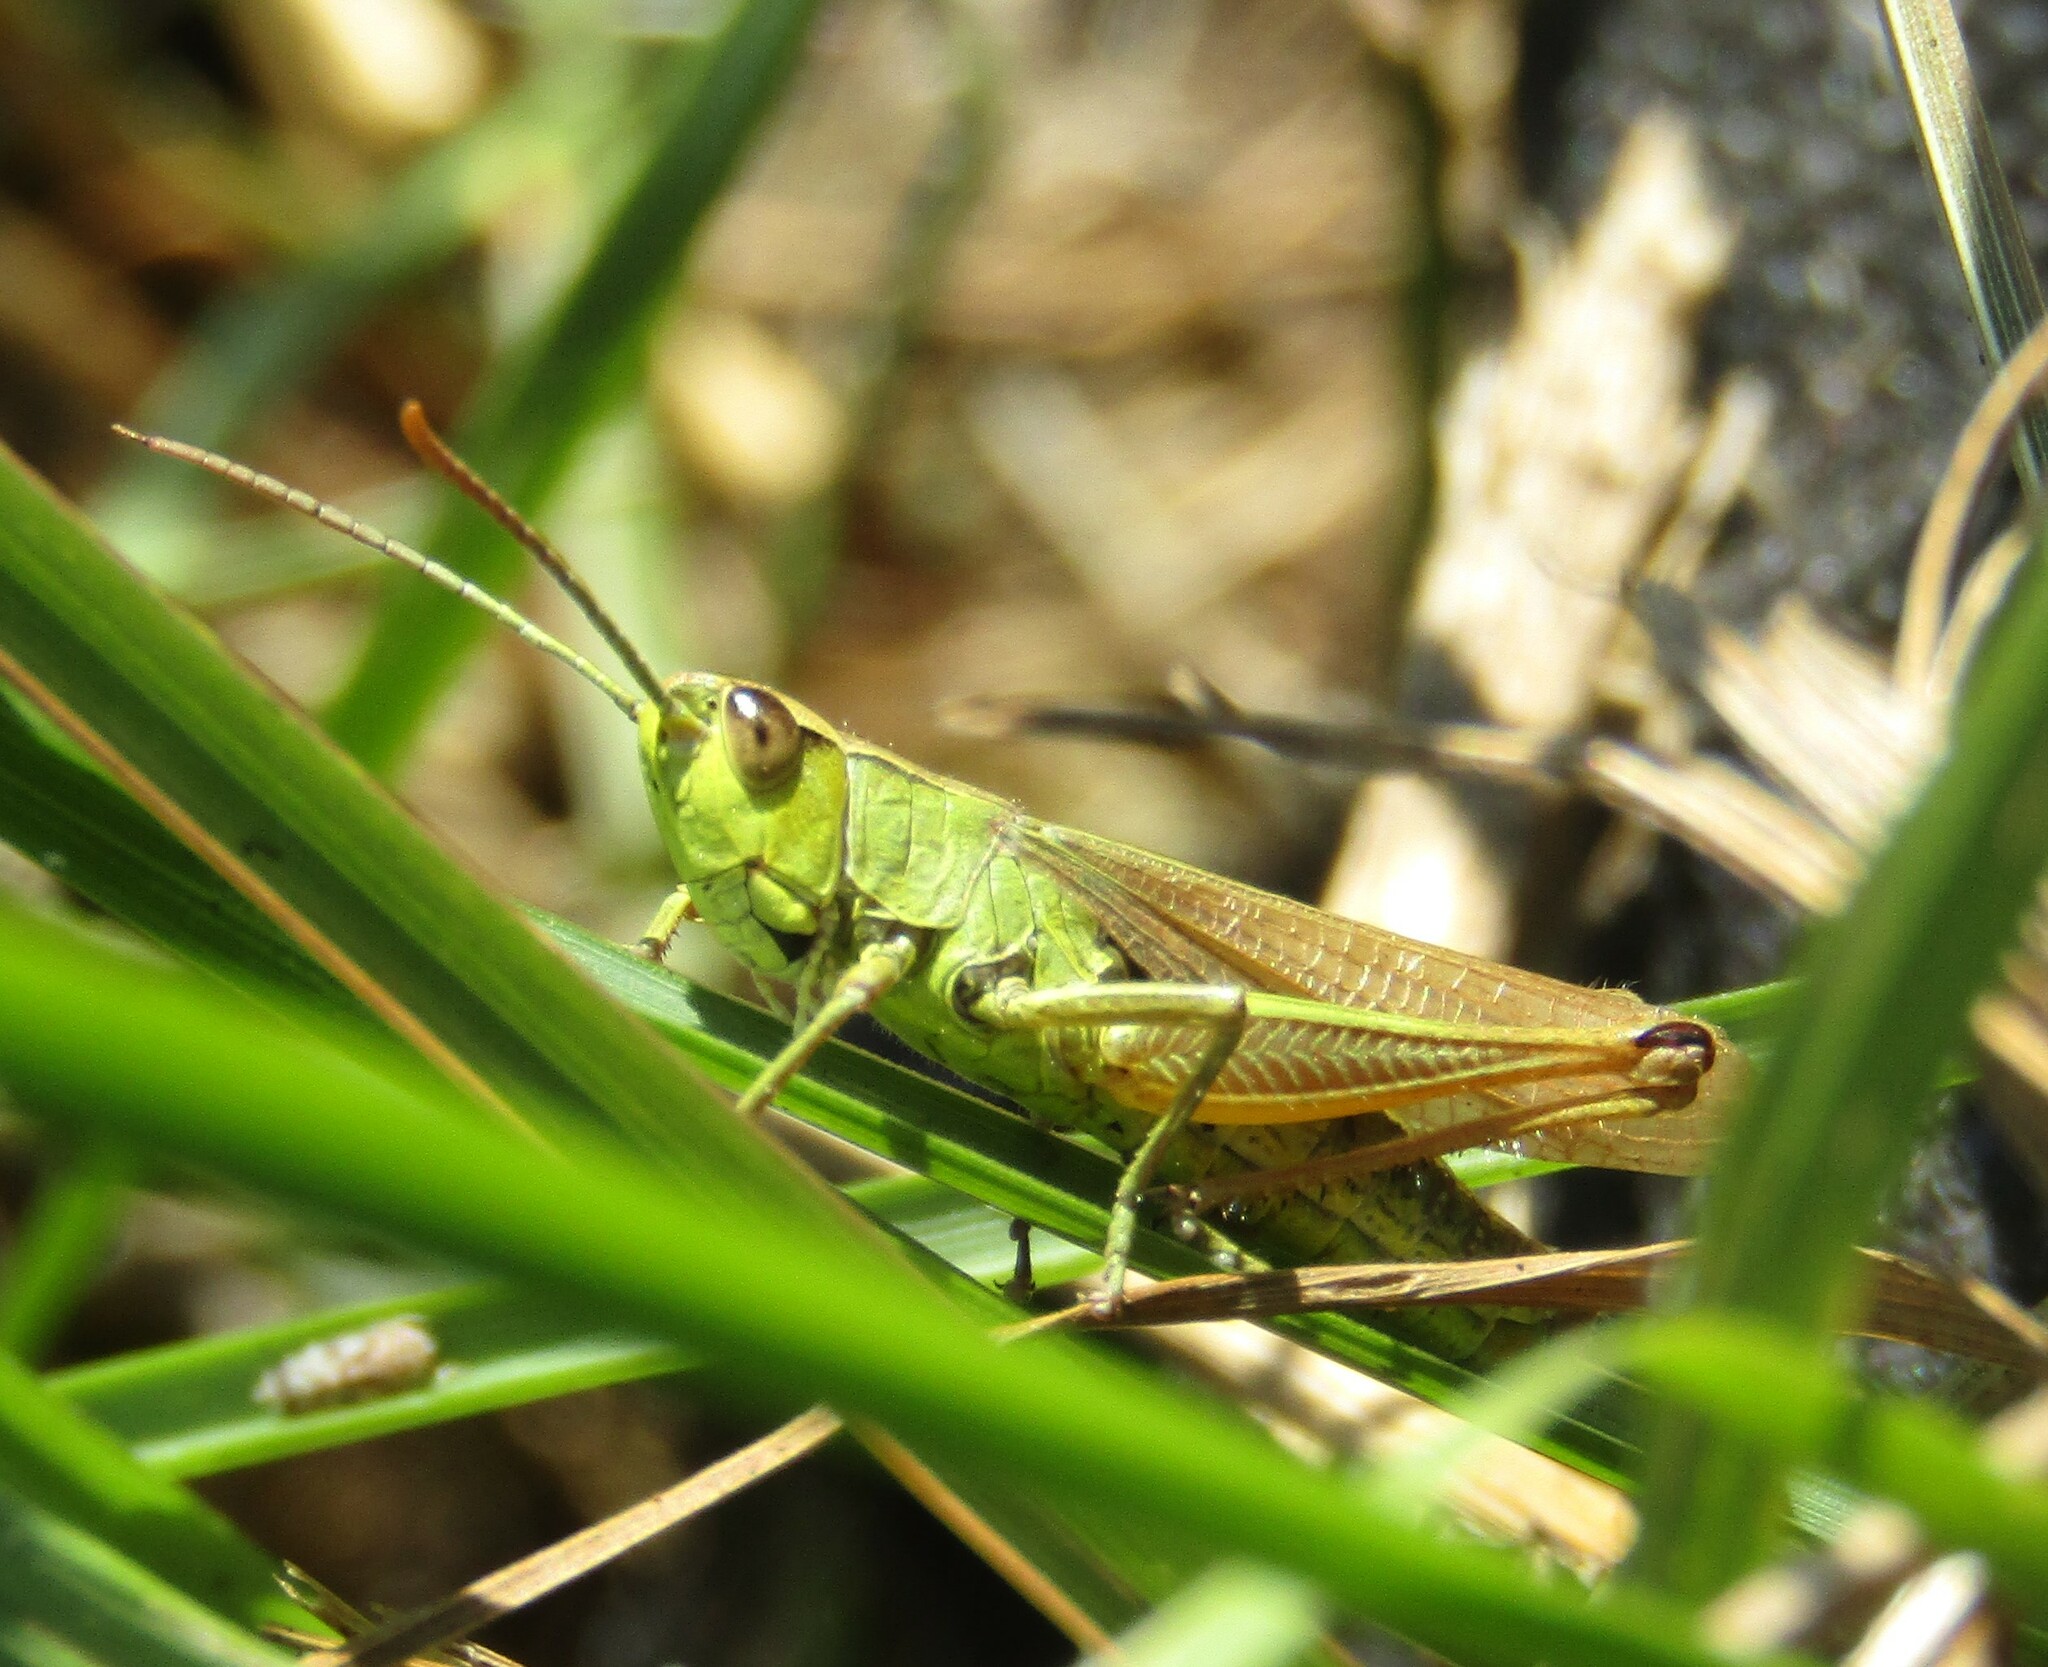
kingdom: Animalia
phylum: Arthropoda
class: Insecta
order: Orthoptera
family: Acrididae
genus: Pseudochorthippus
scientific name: Pseudochorthippus parallelus
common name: Meadow grasshopper
